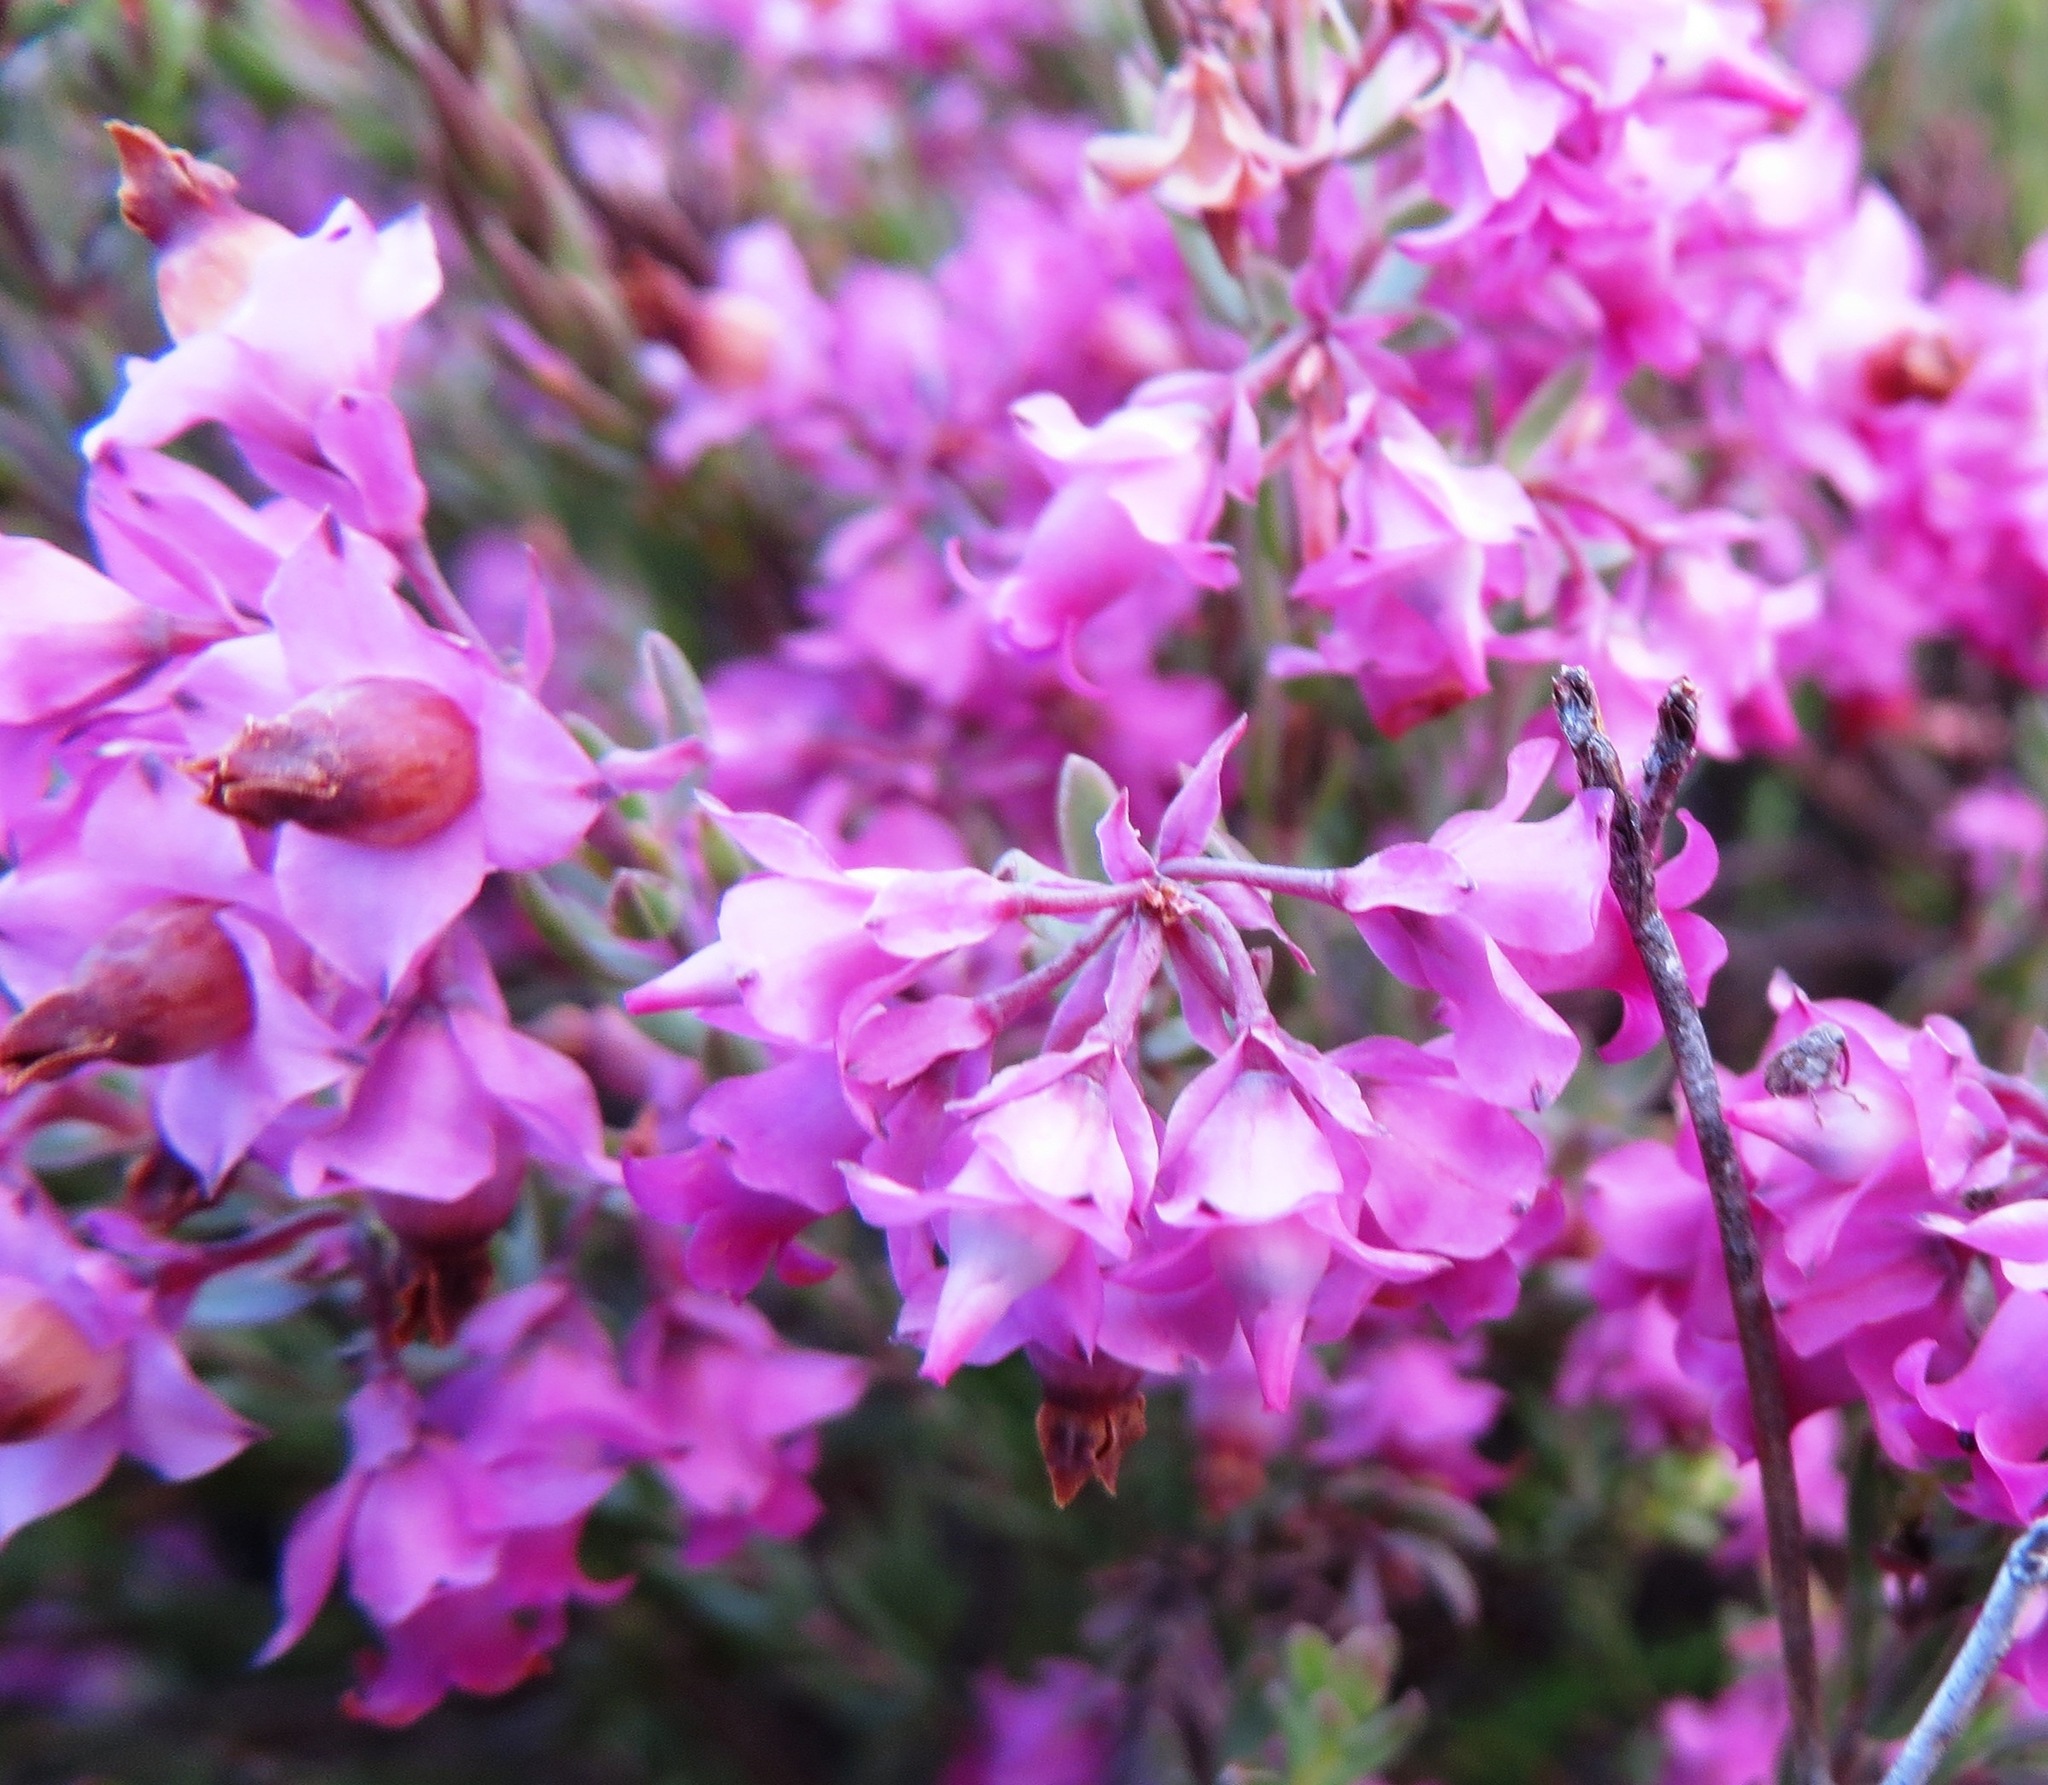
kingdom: Plantae
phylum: Tracheophyta
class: Magnoliopsida
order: Ericales
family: Ericaceae
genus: Erica
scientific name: Erica corifolia
